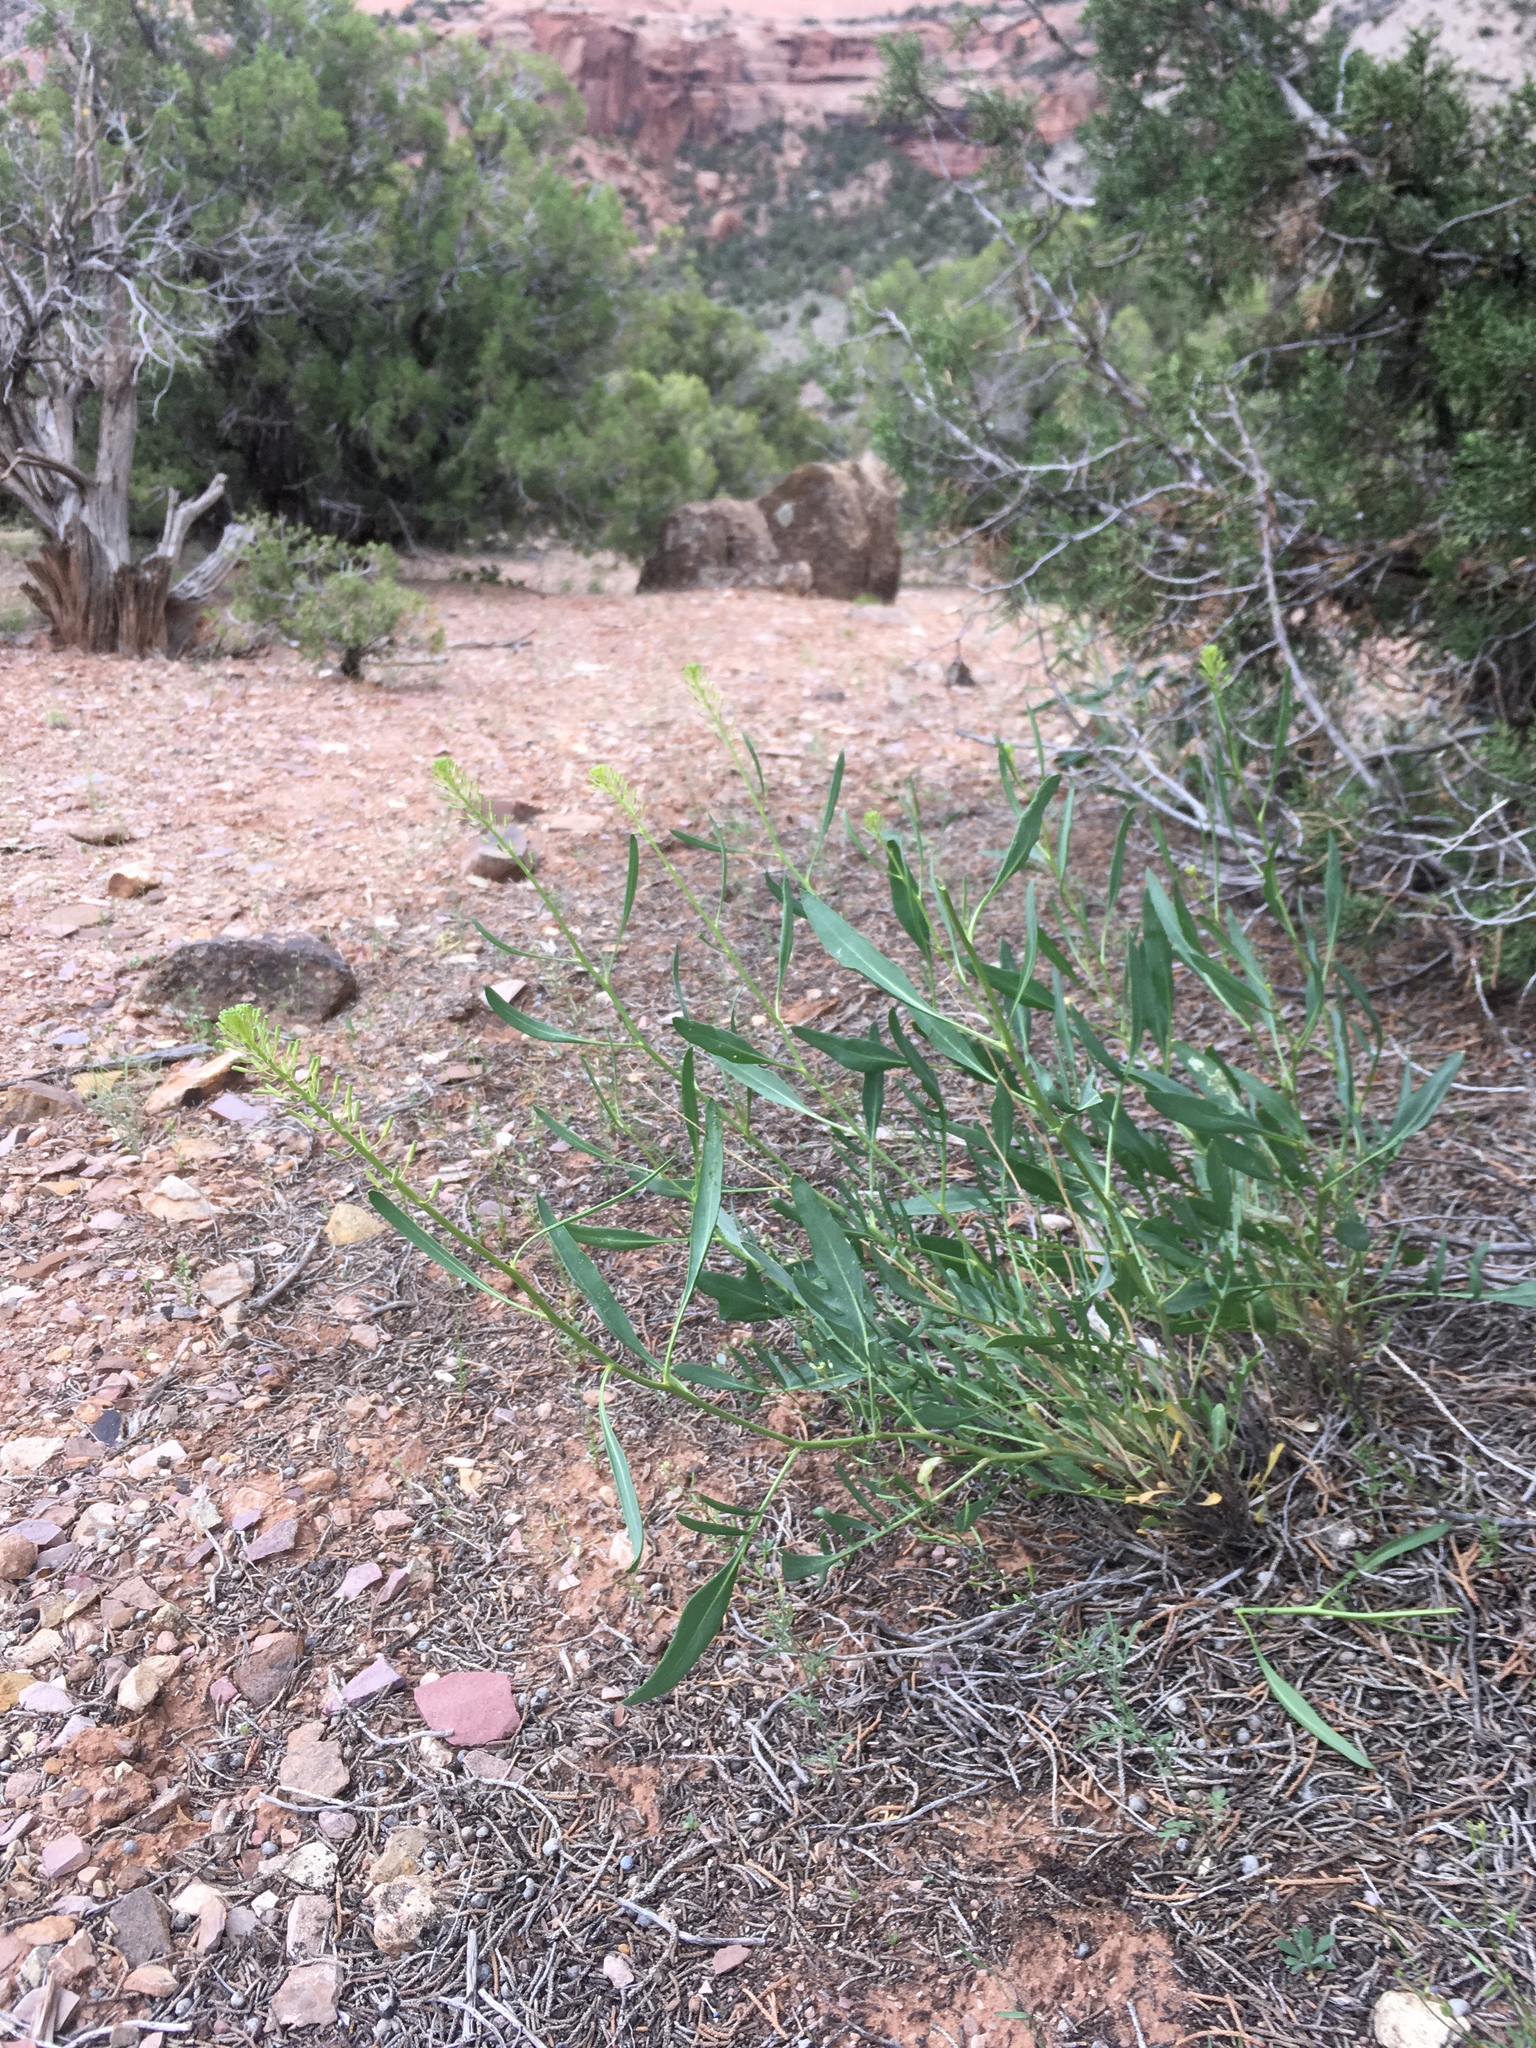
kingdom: Plantae
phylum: Tracheophyta
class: Magnoliopsida
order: Brassicales
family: Brassicaceae
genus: Stanleya
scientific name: Stanleya pinnata
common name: Prince's-plume
